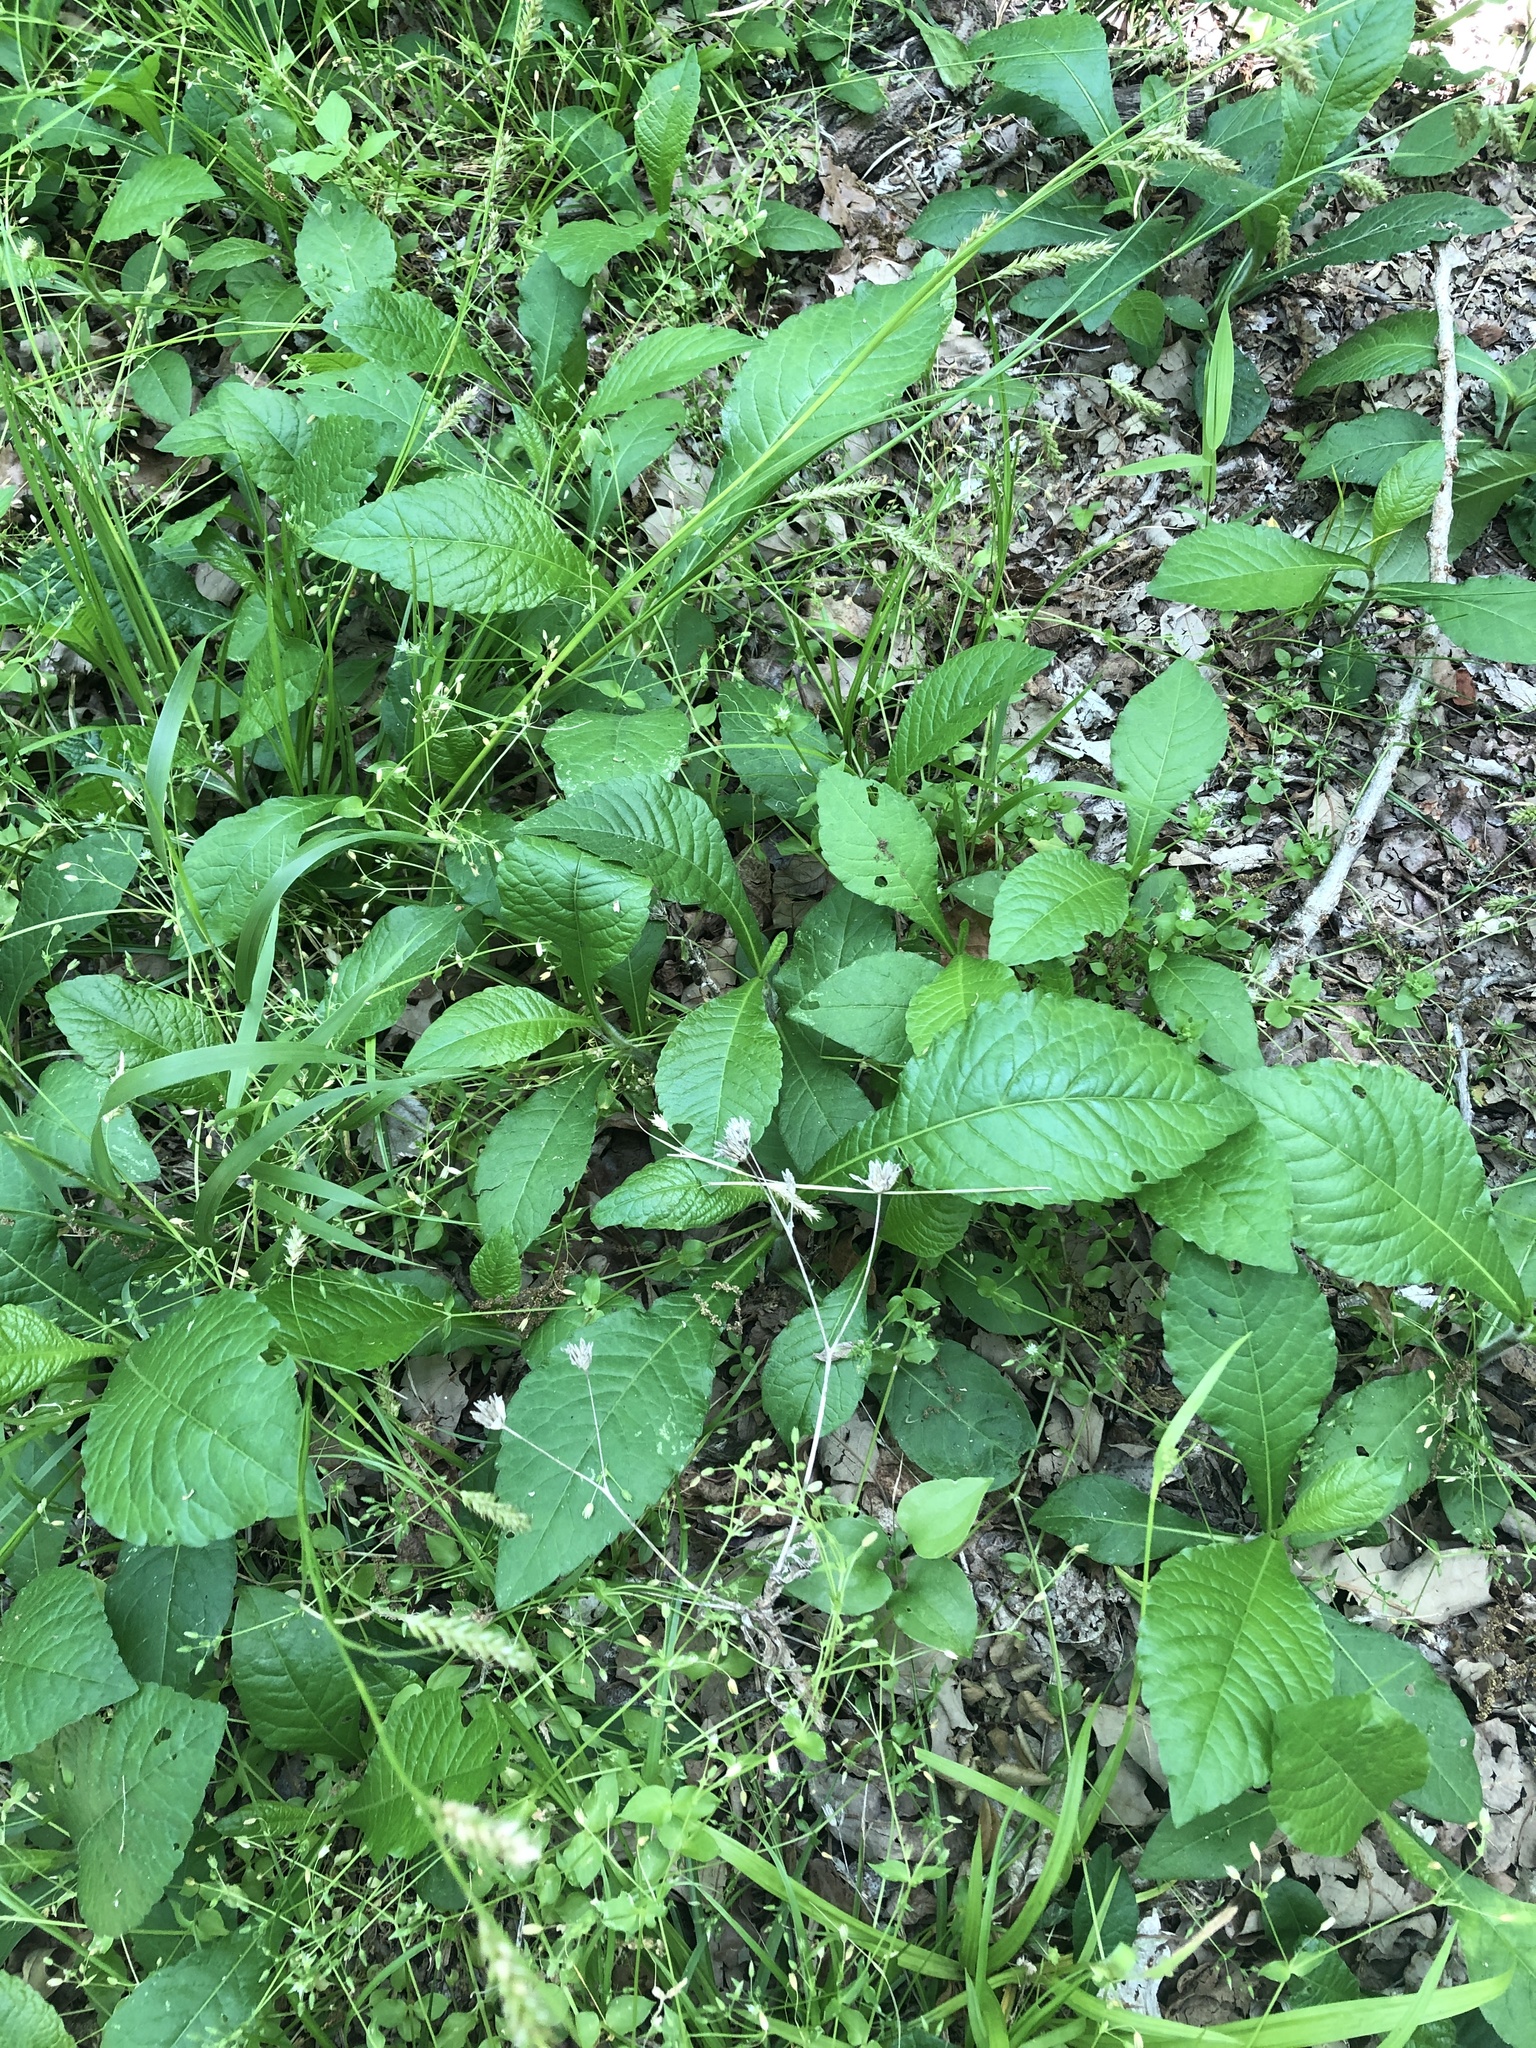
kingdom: Plantae
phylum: Tracheophyta
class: Magnoliopsida
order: Asterales
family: Asteraceae
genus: Elephantopus
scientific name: Elephantopus carolinianus
